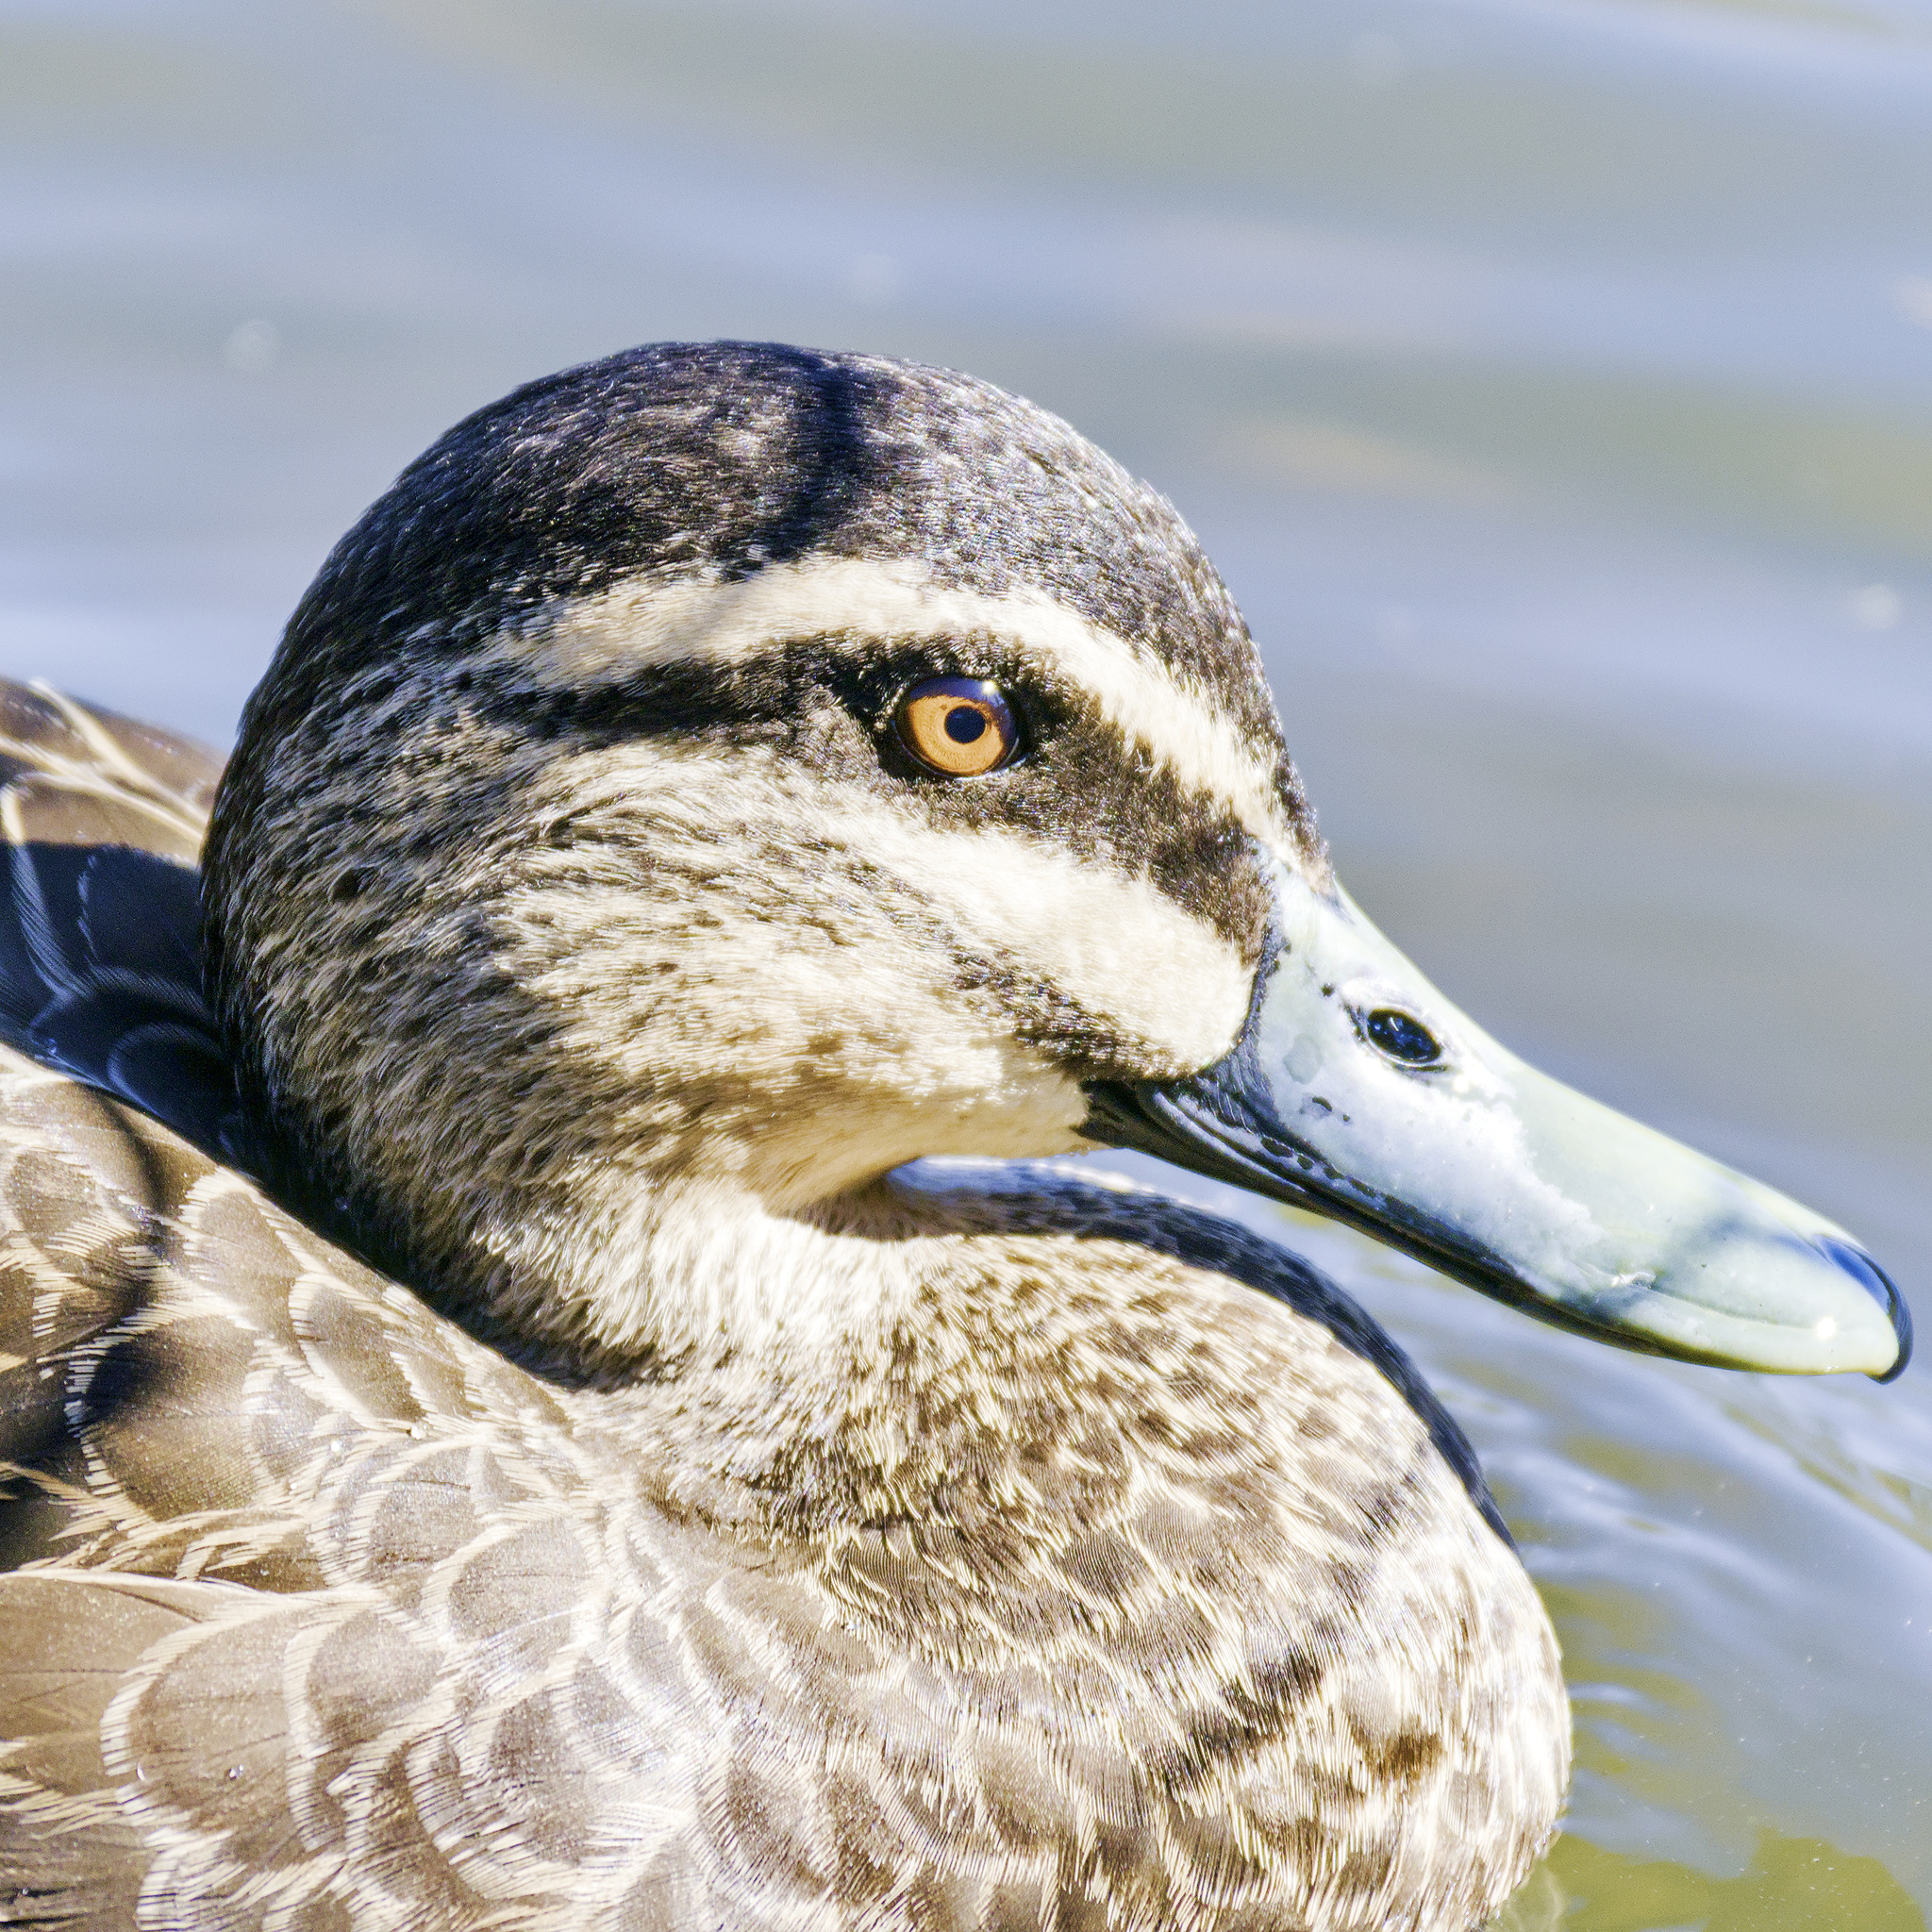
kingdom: Animalia
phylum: Chordata
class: Aves
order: Anseriformes
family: Anatidae
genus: Anas
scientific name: Anas superciliosa
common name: Pacific black duck
